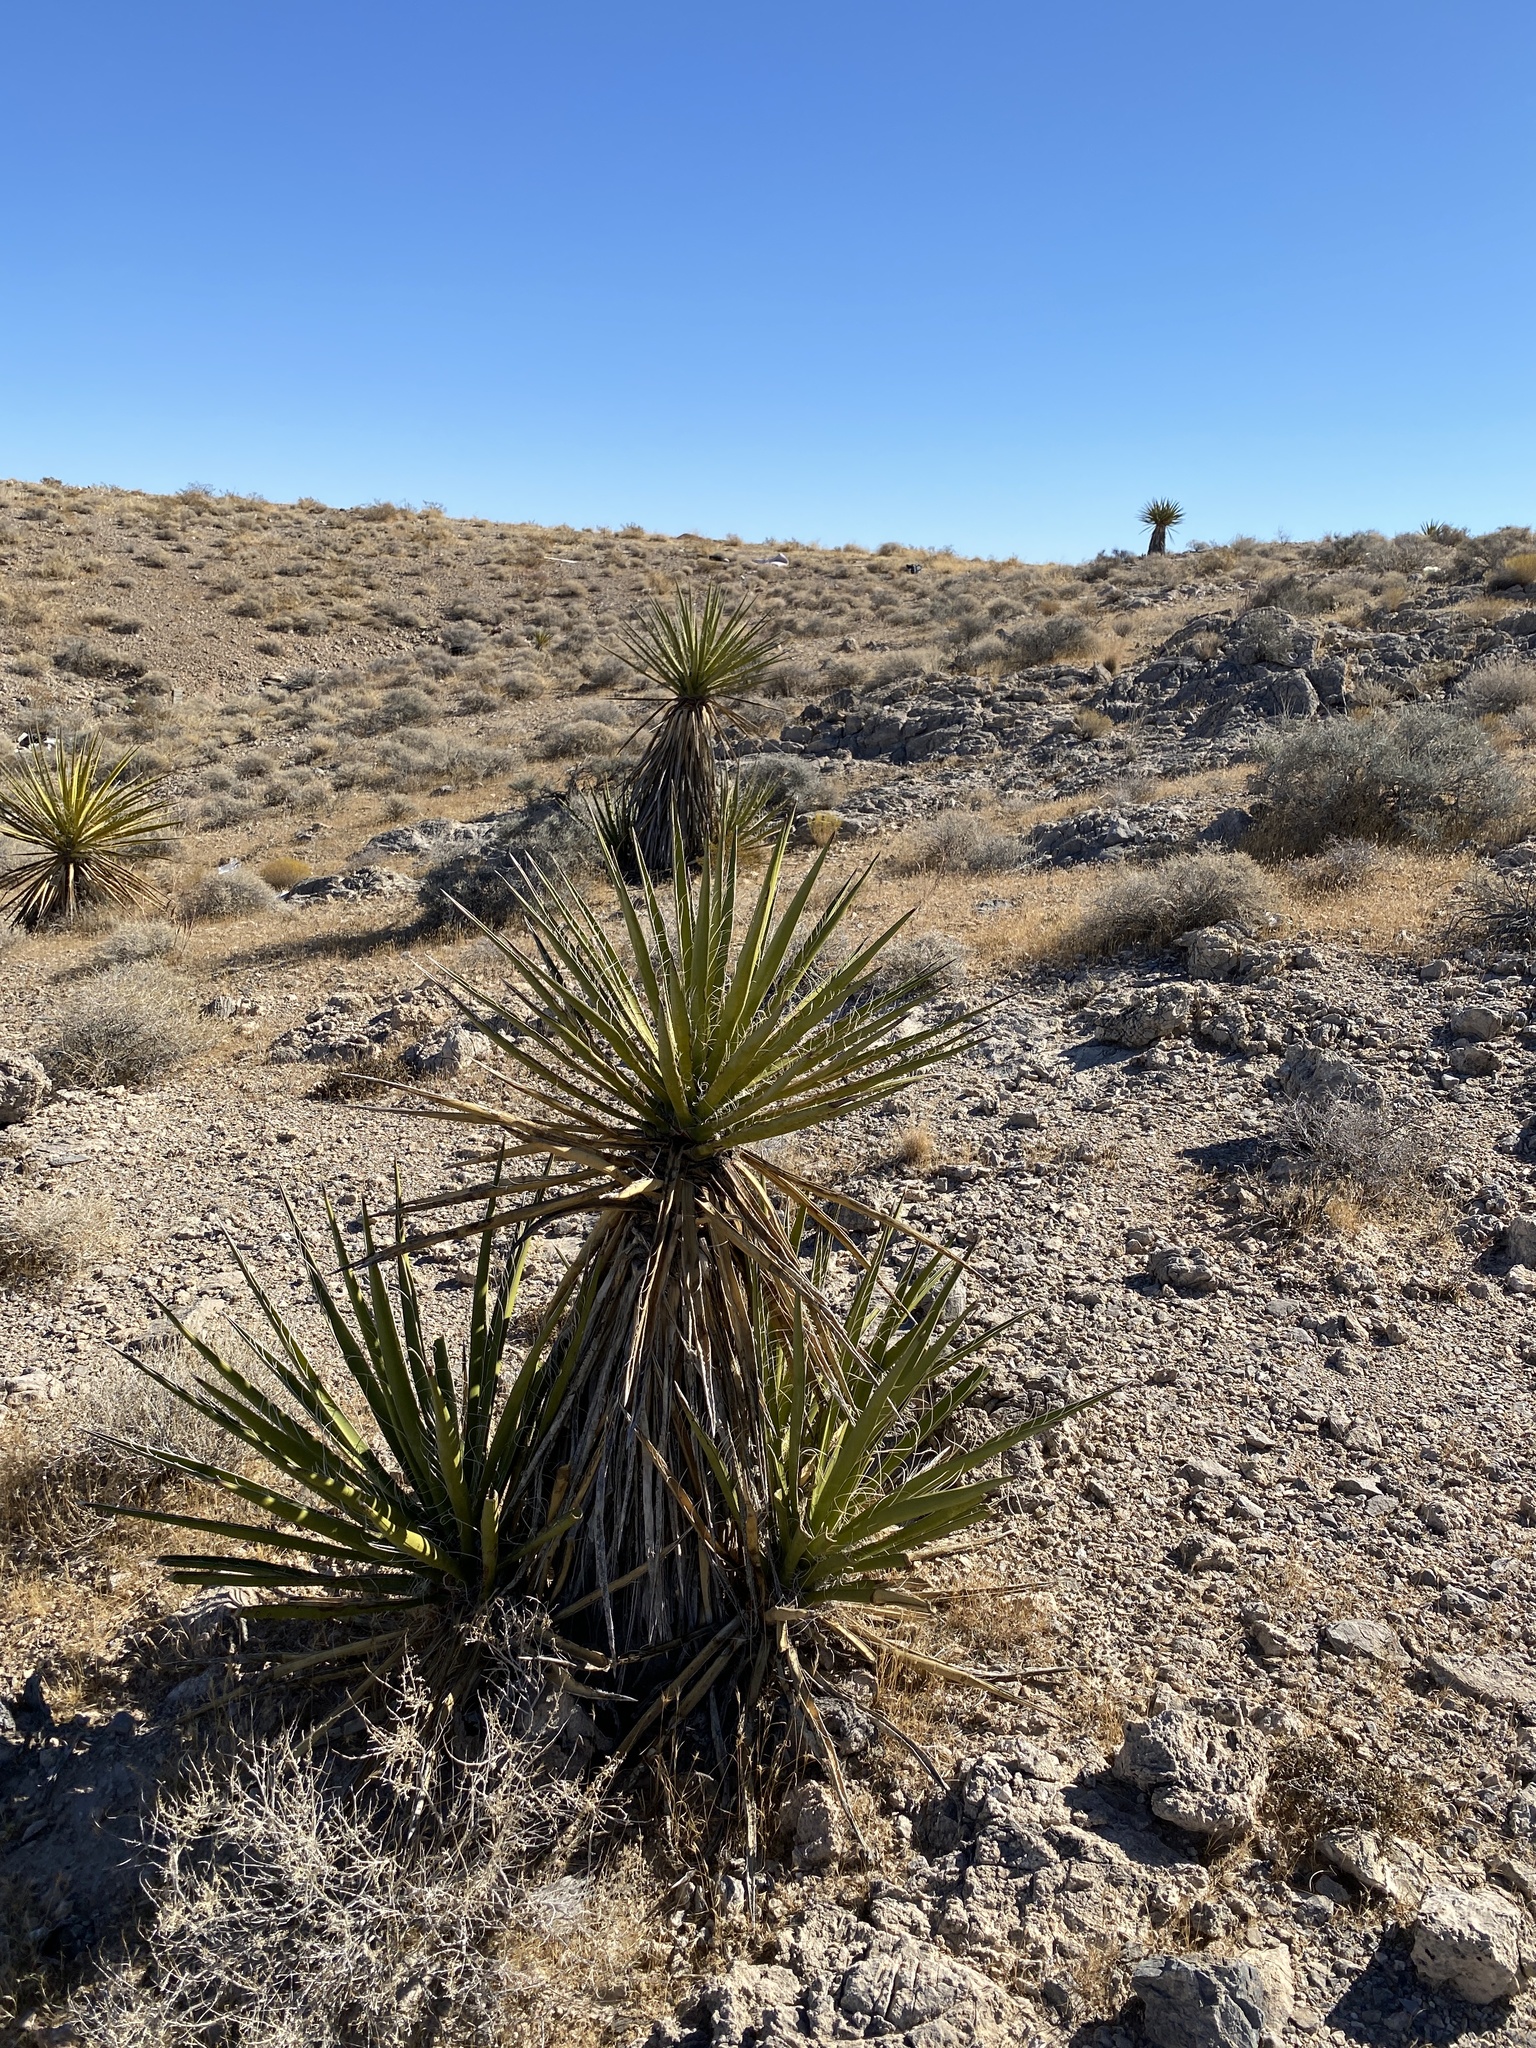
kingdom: Plantae
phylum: Tracheophyta
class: Liliopsida
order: Asparagales
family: Asparagaceae
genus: Yucca
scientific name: Yucca schidigera
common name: Mojave yucca
